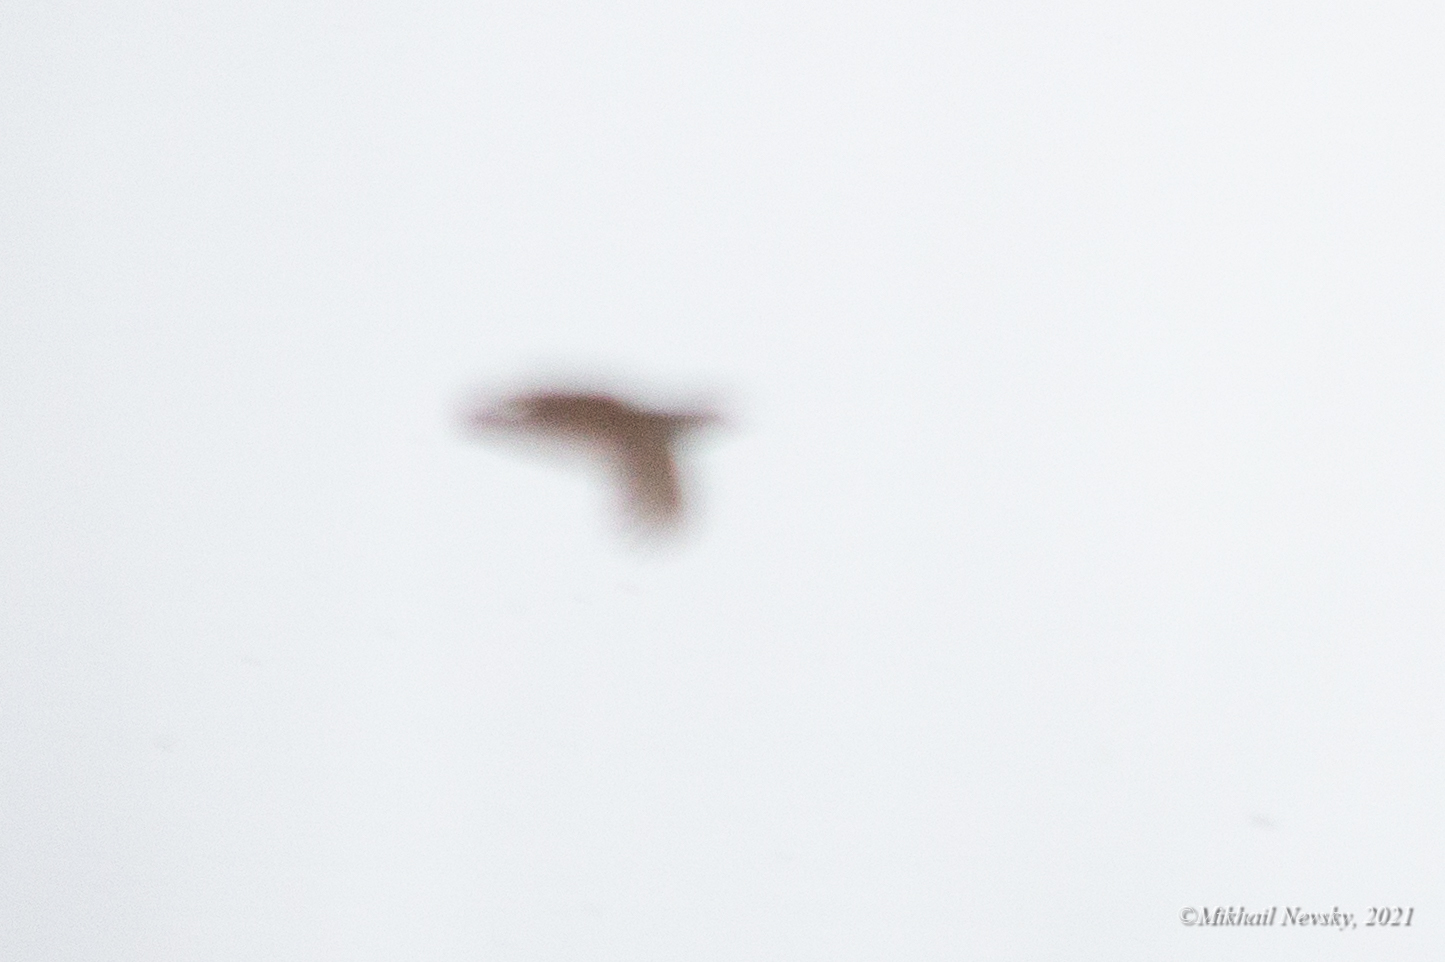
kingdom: Animalia
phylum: Chordata
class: Aves
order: Galliformes
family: Phasianidae
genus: Perdix
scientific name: Perdix perdix
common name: Grey partridge
